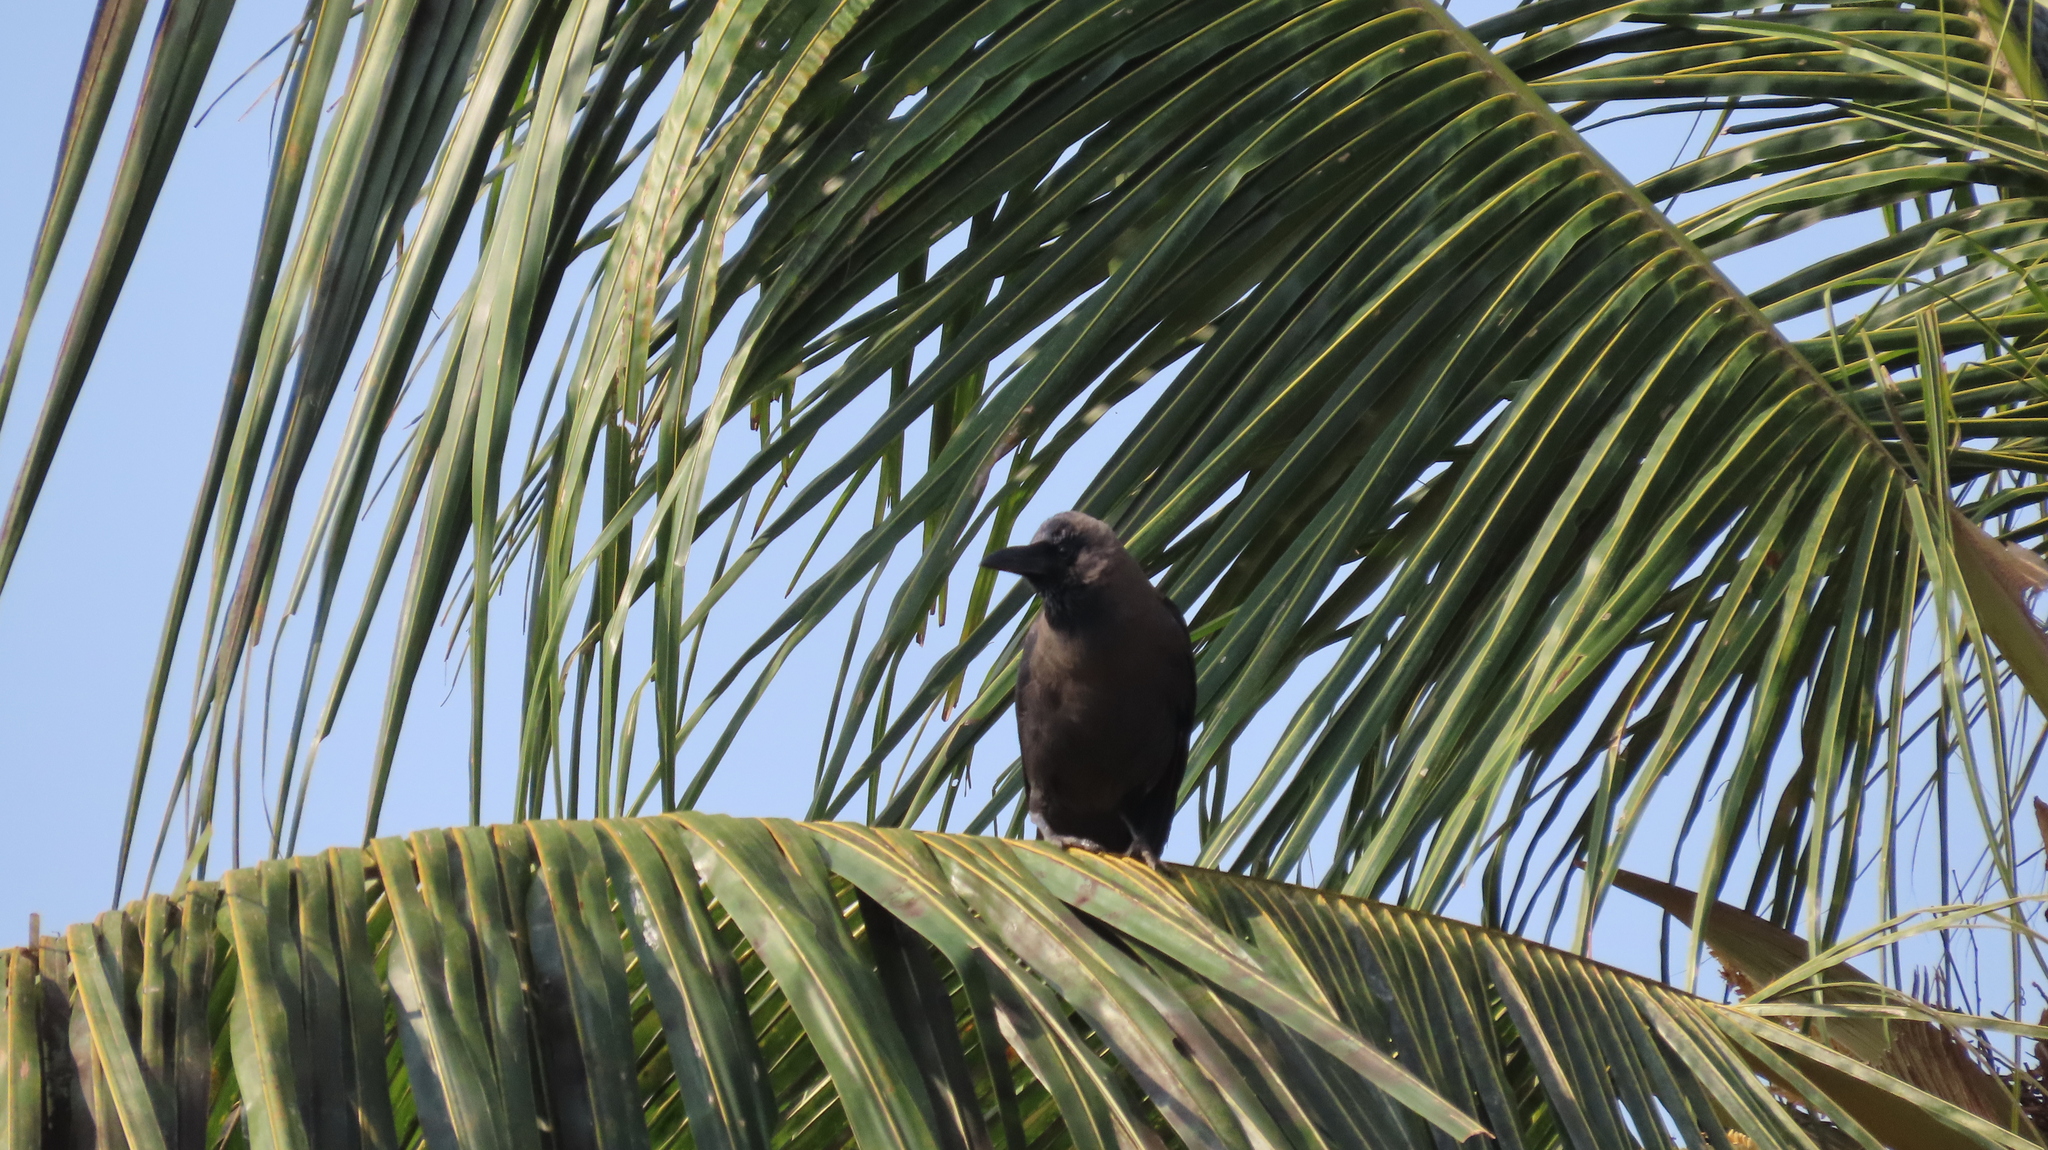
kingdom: Animalia
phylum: Chordata
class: Aves
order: Passeriformes
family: Corvidae
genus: Corvus
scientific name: Corvus splendens
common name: House crow
